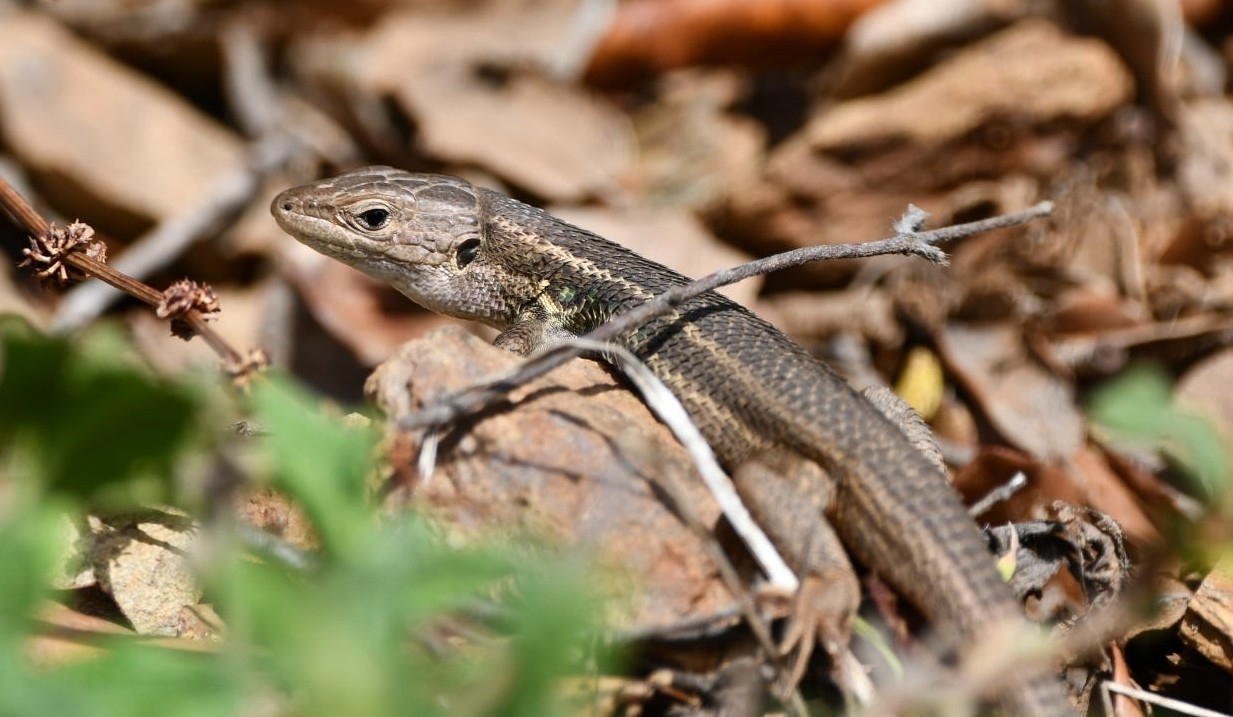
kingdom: Animalia
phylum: Chordata
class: Squamata
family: Lacertidae
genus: Psammodromus
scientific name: Psammodromus algirus
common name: Algerian psammodromus
